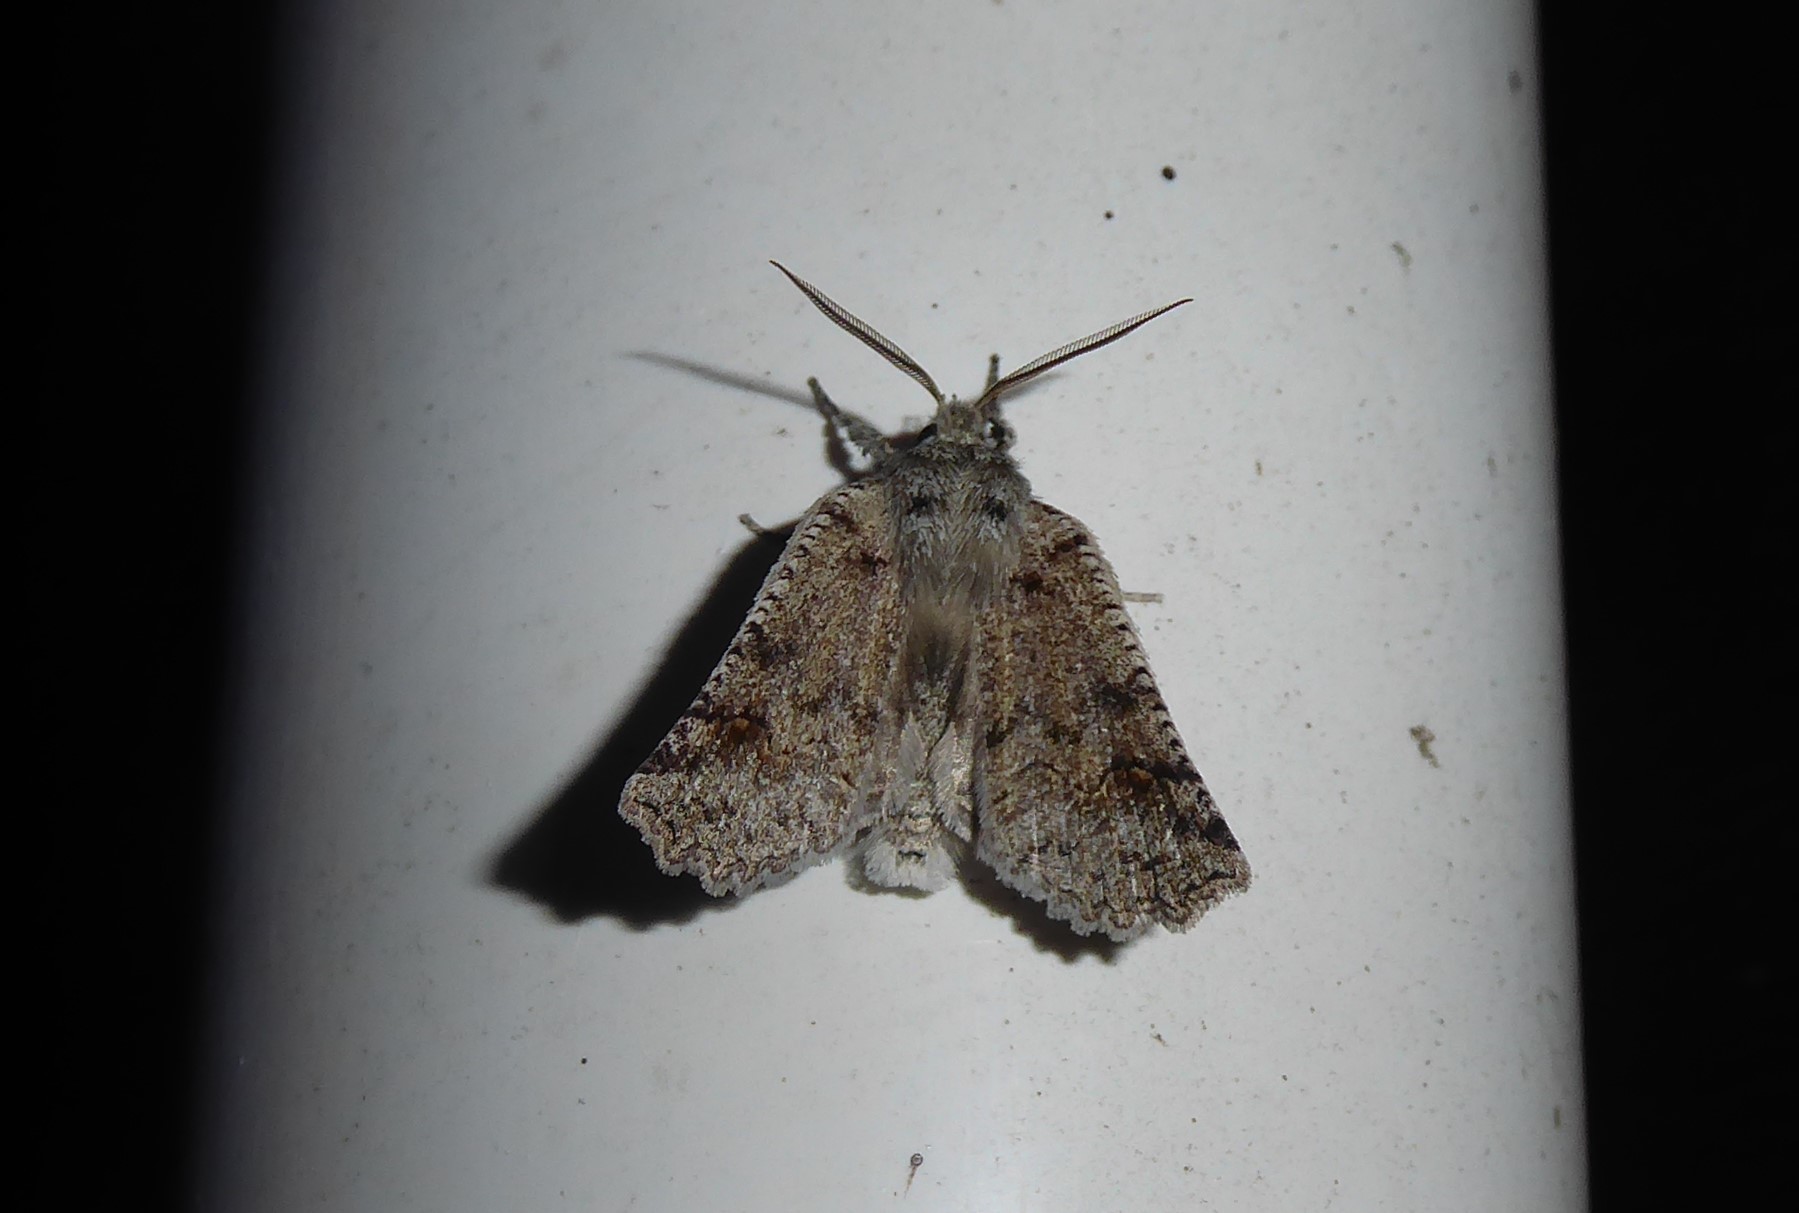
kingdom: Animalia
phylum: Arthropoda
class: Insecta
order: Lepidoptera
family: Geometridae
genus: Declana
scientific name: Declana floccosa
